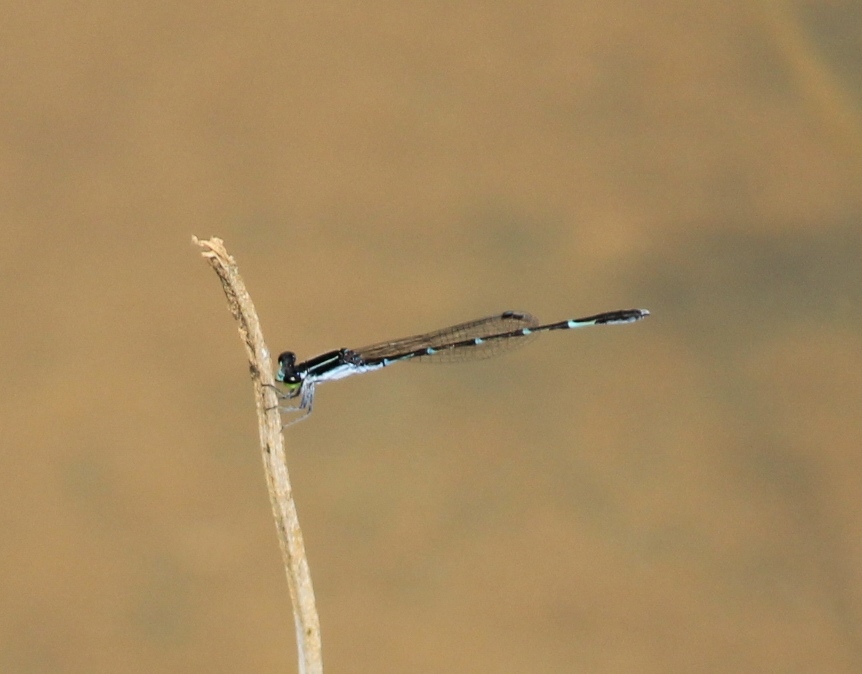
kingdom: Animalia
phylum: Arthropoda
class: Insecta
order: Odonata
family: Coenagrionidae
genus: Agriocnemis
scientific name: Agriocnemis splendidissima
